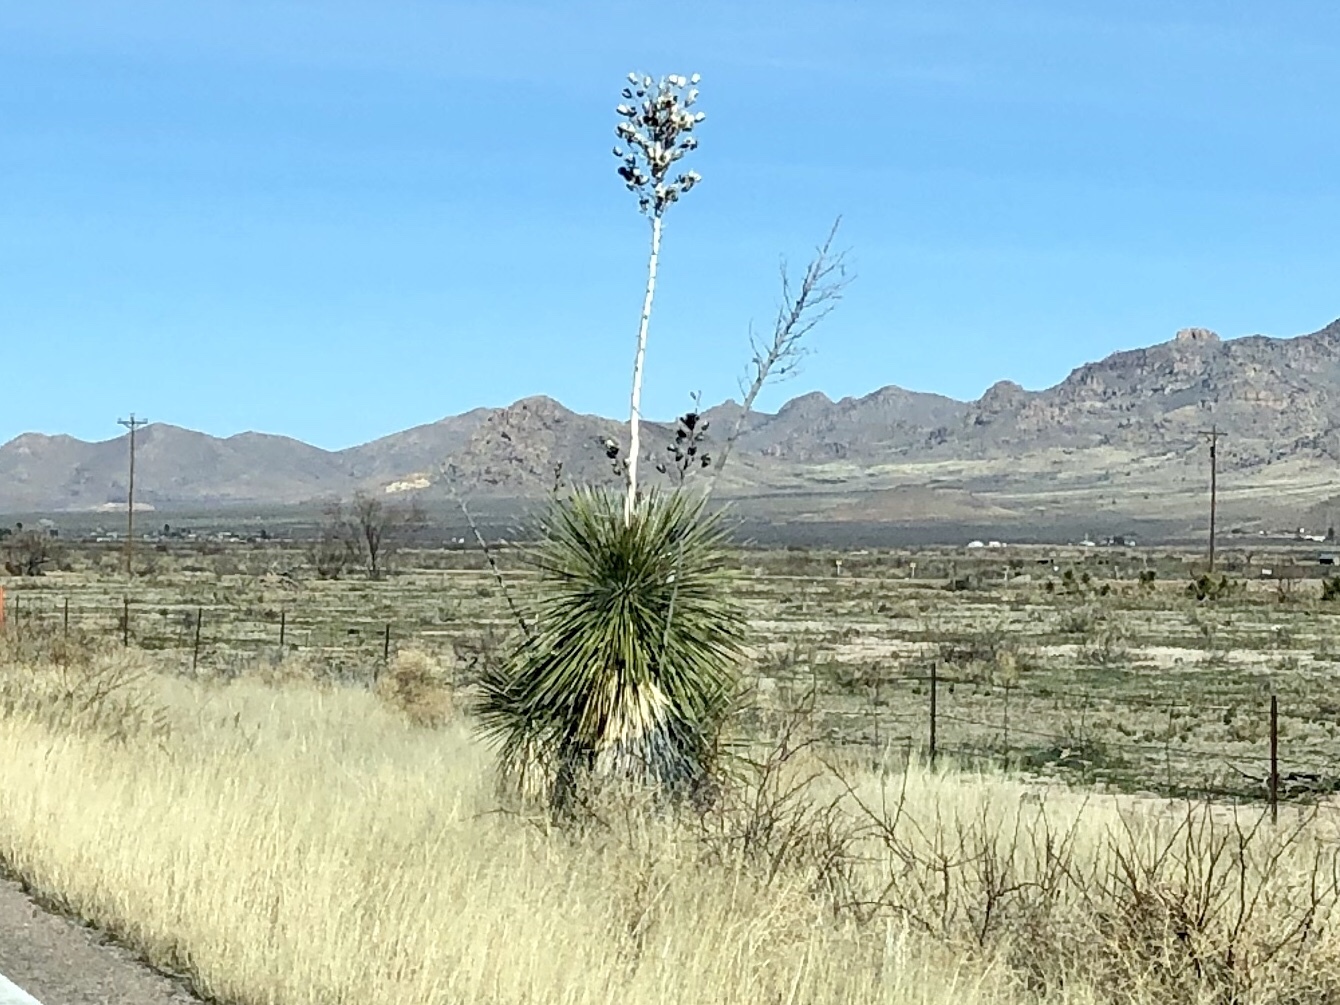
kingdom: Plantae
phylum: Tracheophyta
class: Liliopsida
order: Asparagales
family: Asparagaceae
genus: Yucca
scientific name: Yucca elata
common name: Palmella
